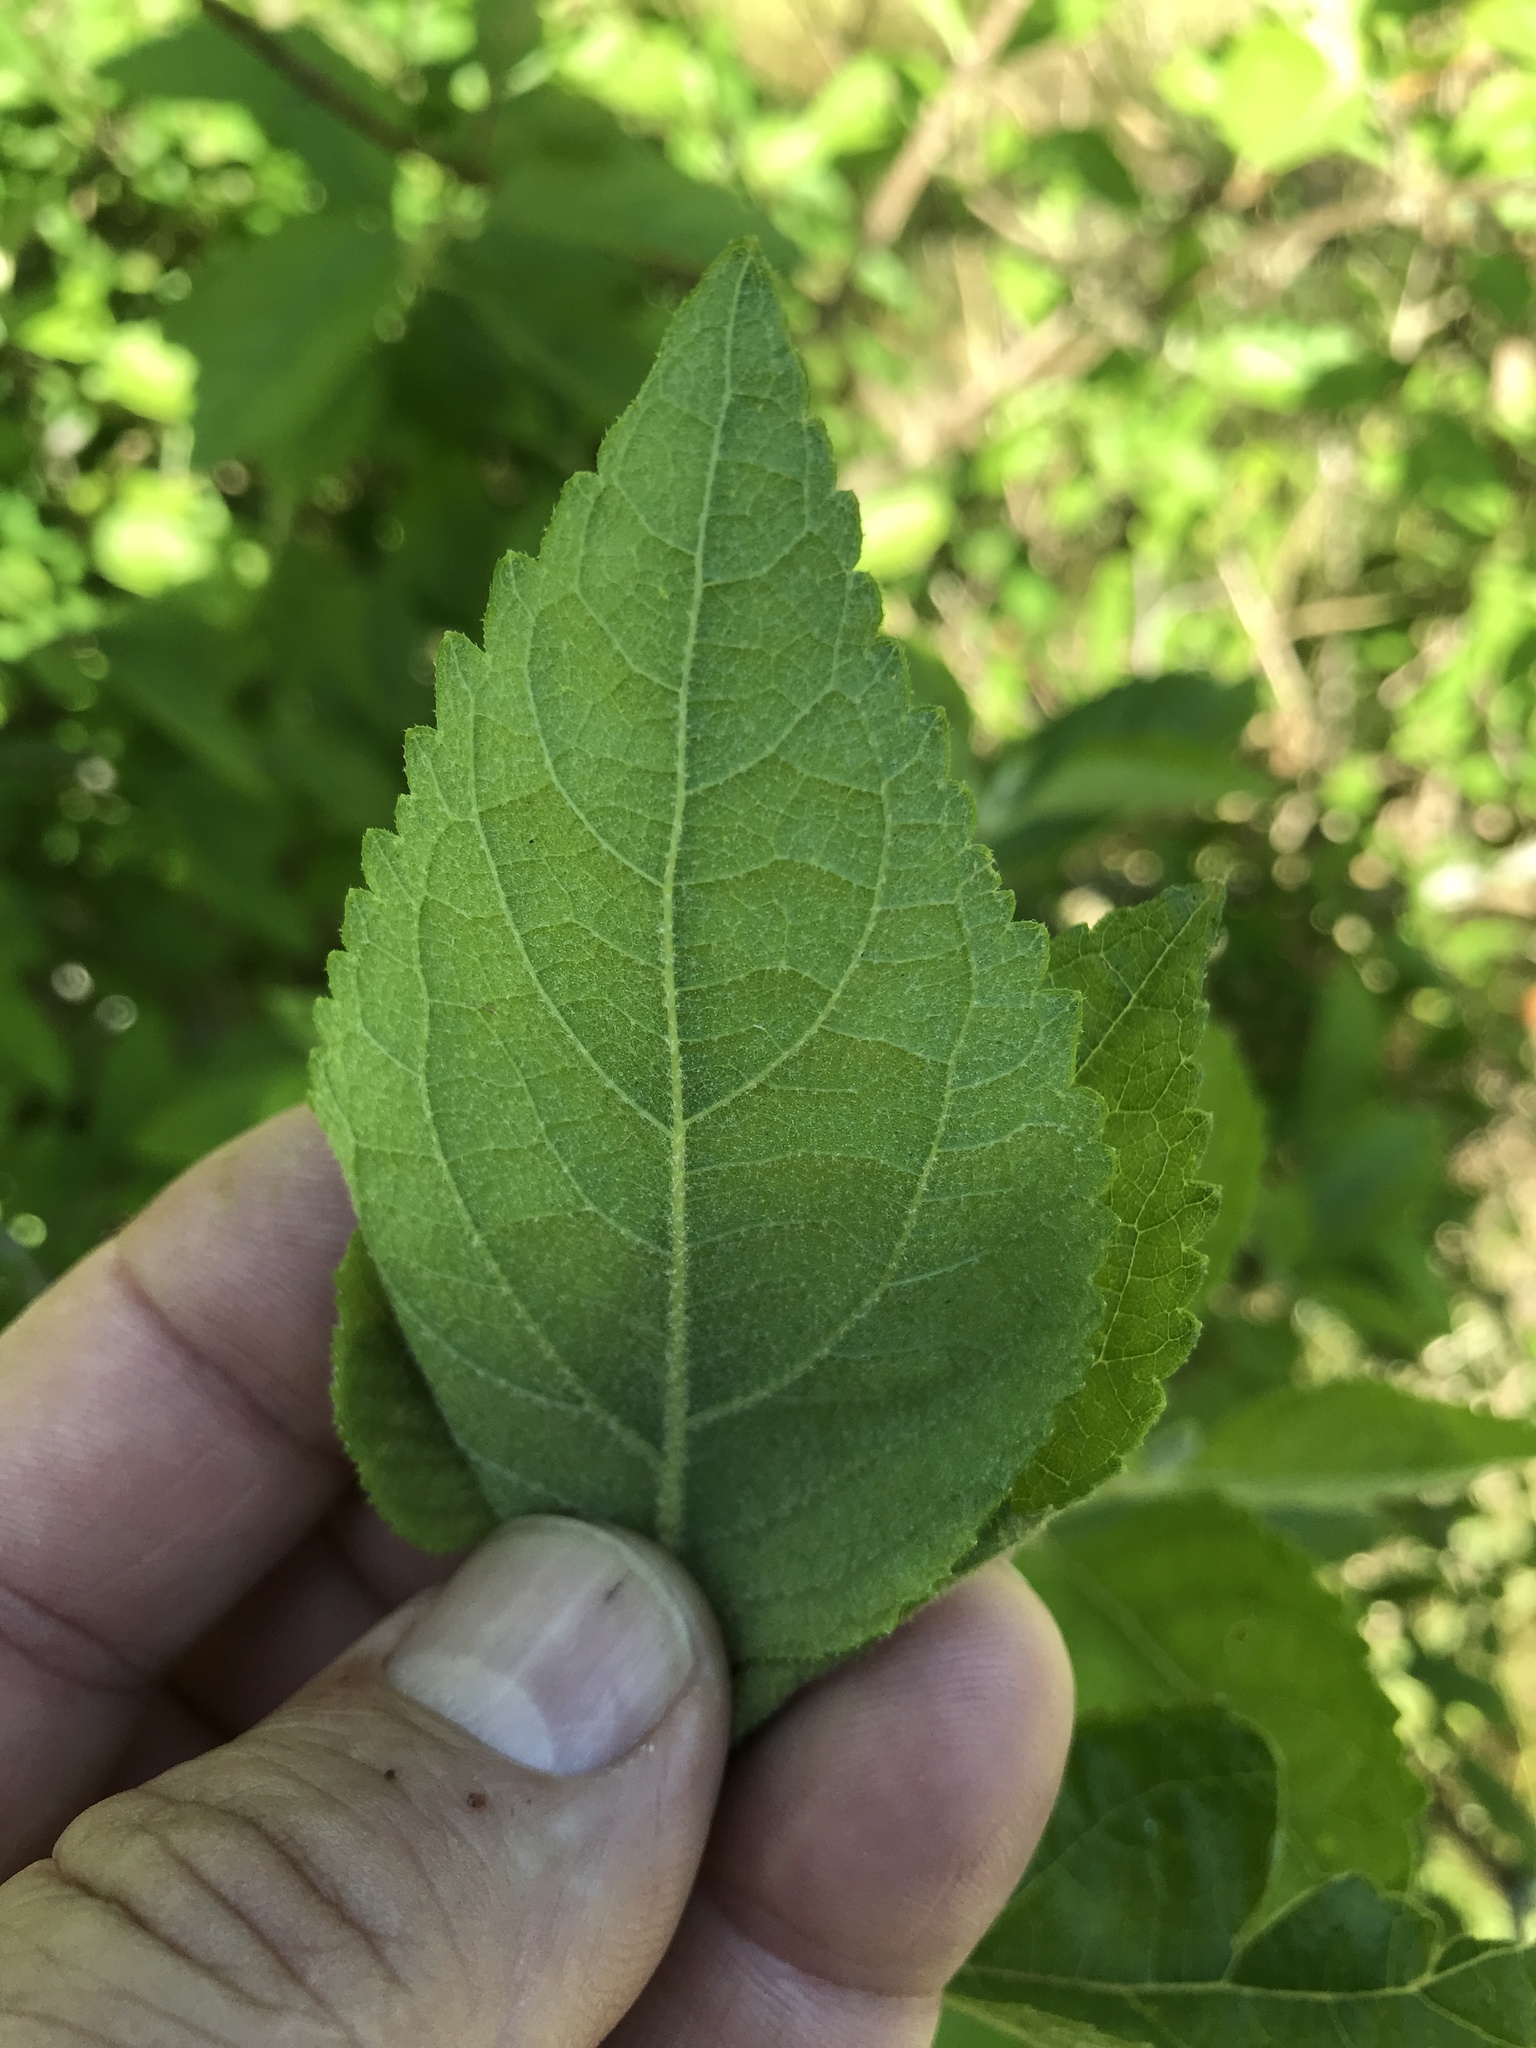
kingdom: Plantae
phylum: Tracheophyta
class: Magnoliopsida
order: Lamiales
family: Lamiaceae
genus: Callicarpa
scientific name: Callicarpa americana
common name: American beautyberry
